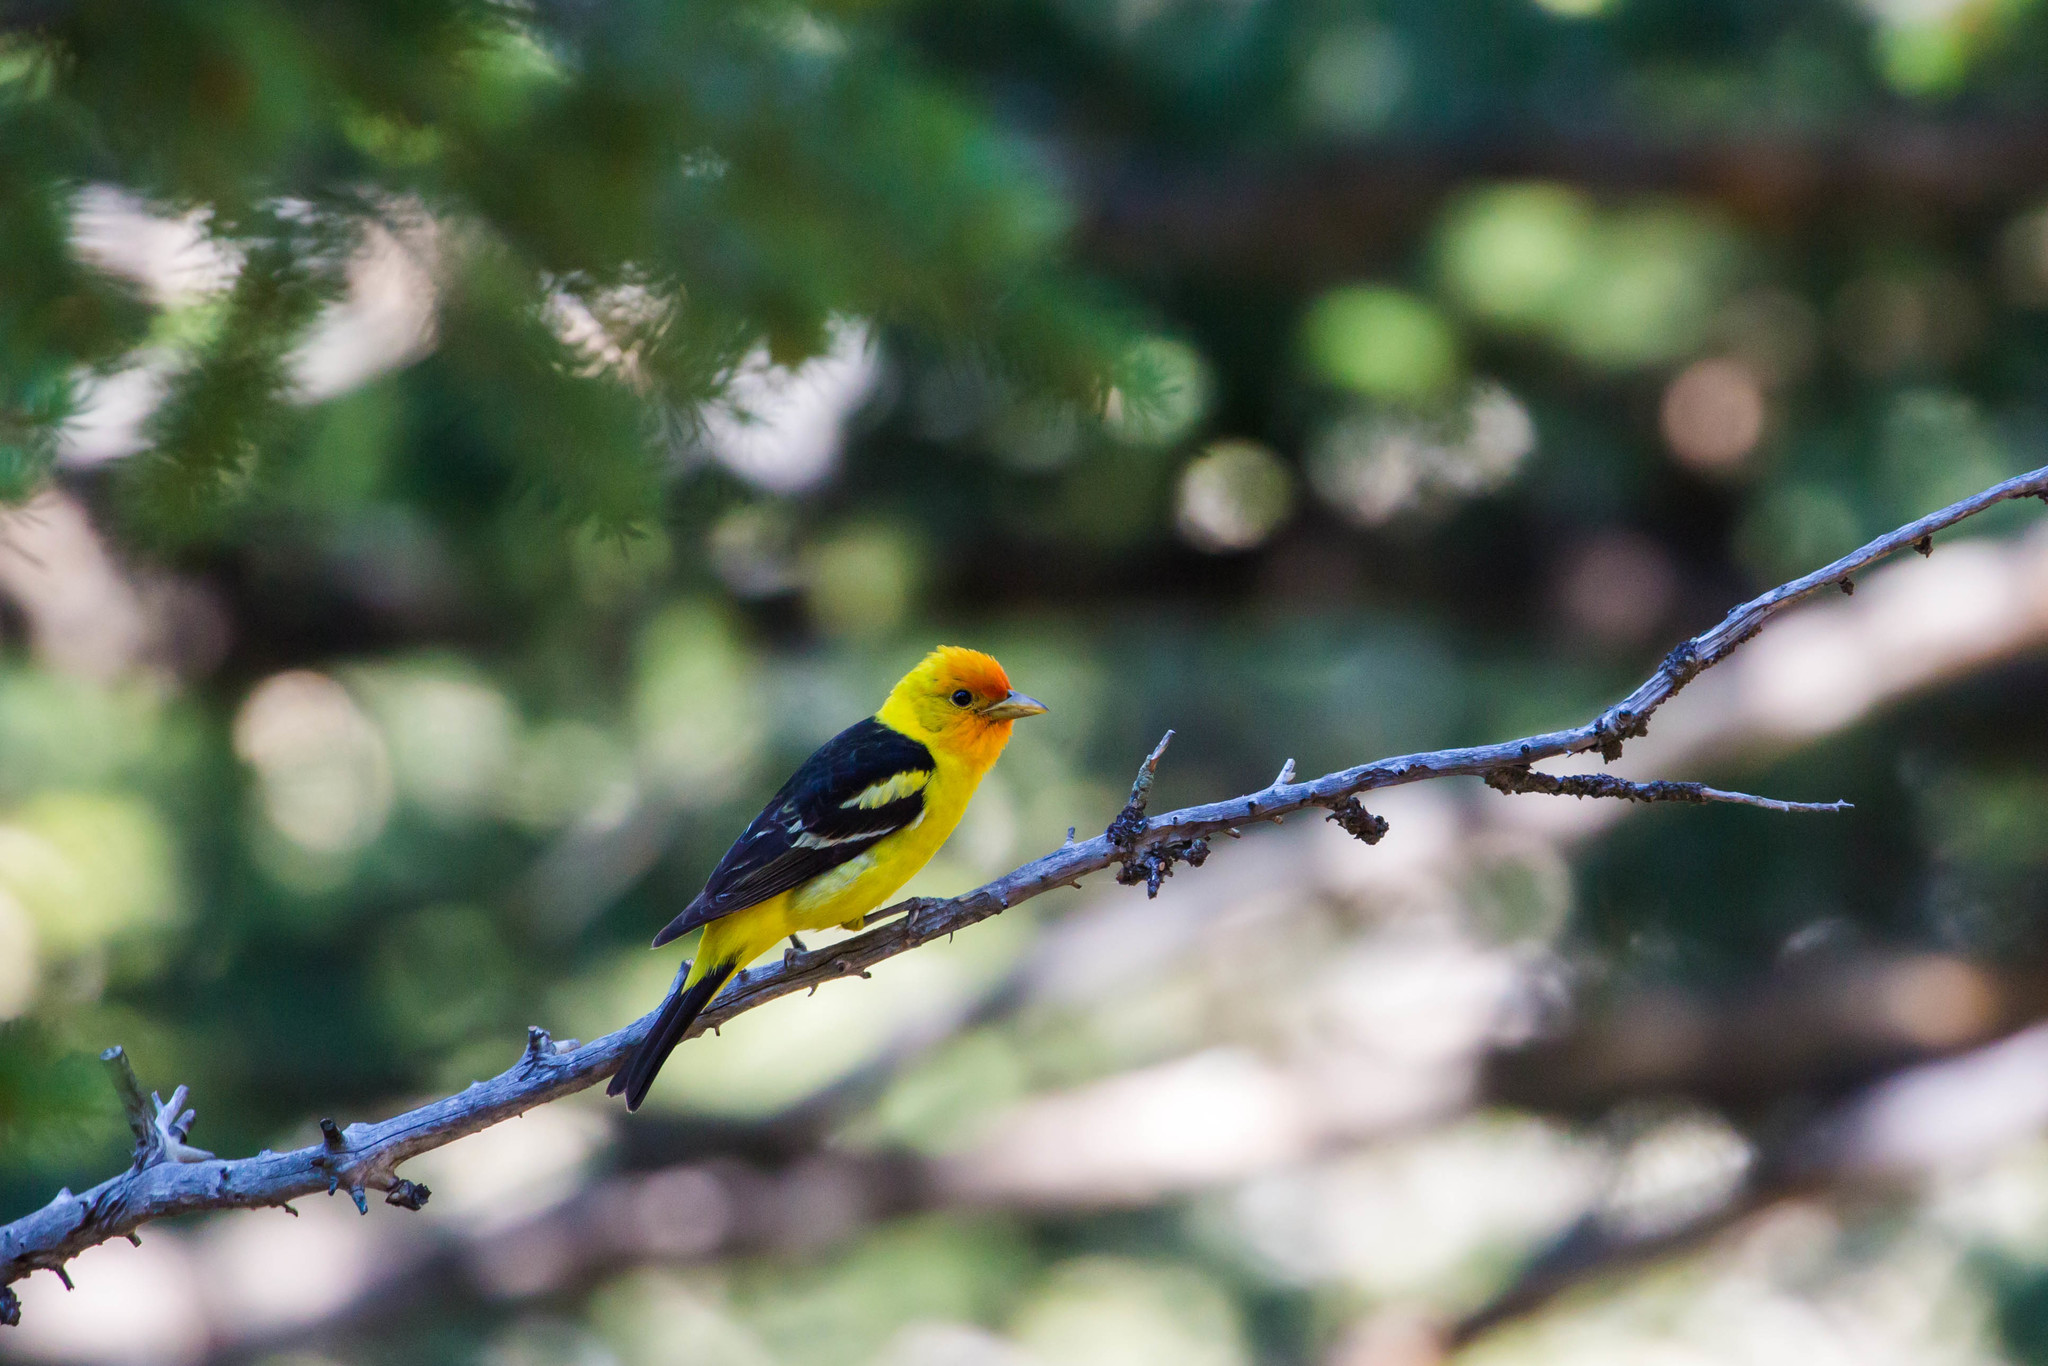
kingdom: Animalia
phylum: Chordata
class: Aves
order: Passeriformes
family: Cardinalidae
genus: Piranga
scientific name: Piranga ludoviciana
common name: Western tanager
